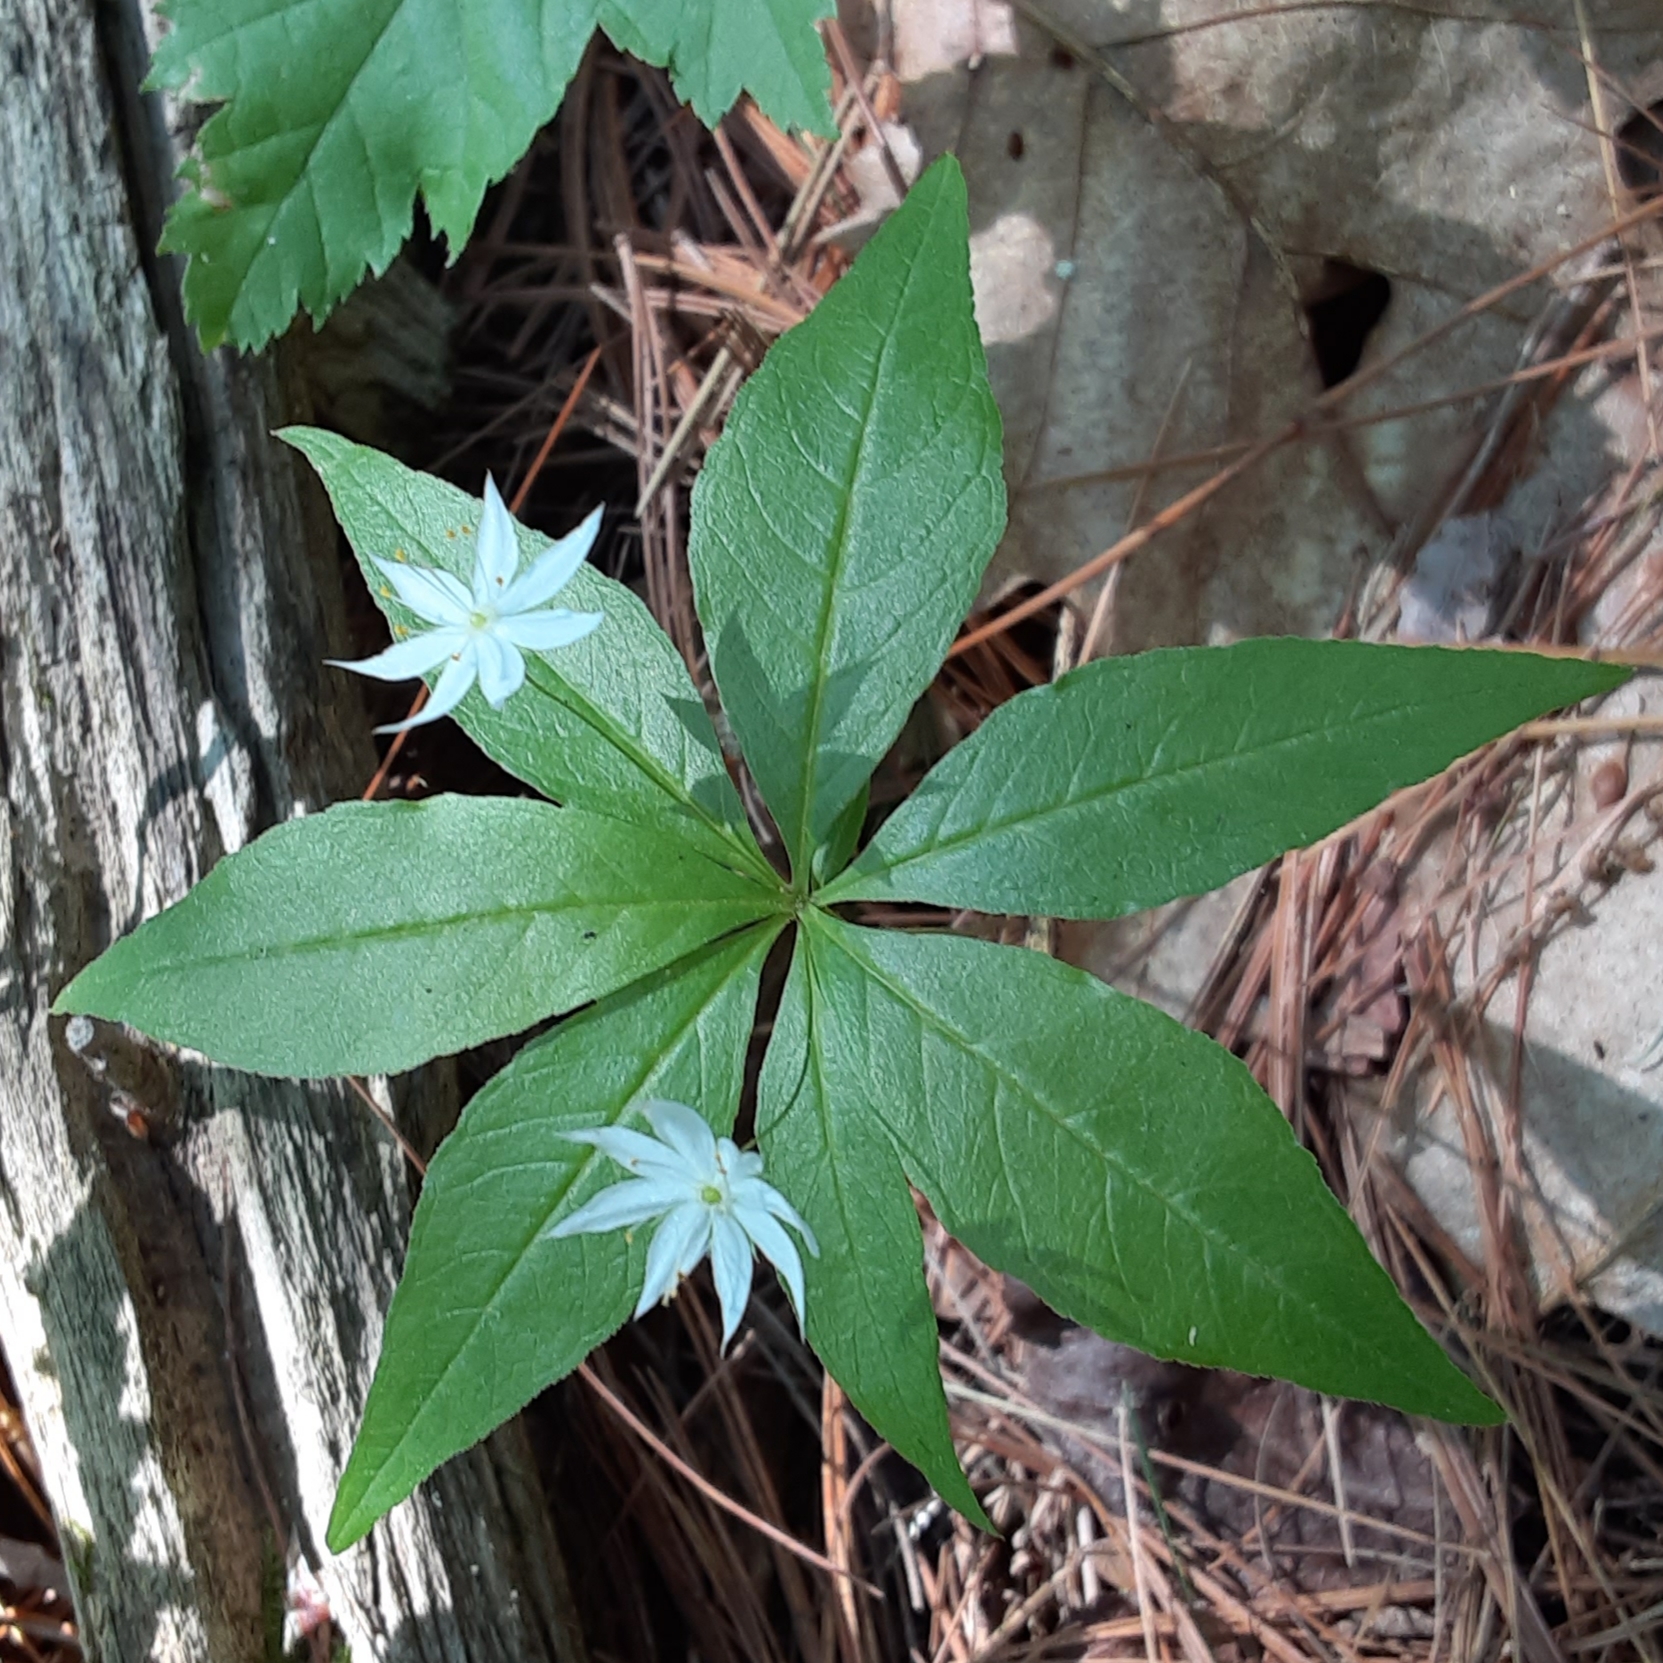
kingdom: Plantae
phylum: Tracheophyta
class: Magnoliopsida
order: Ericales
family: Primulaceae
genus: Lysimachia
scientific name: Lysimachia borealis
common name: American starflower
